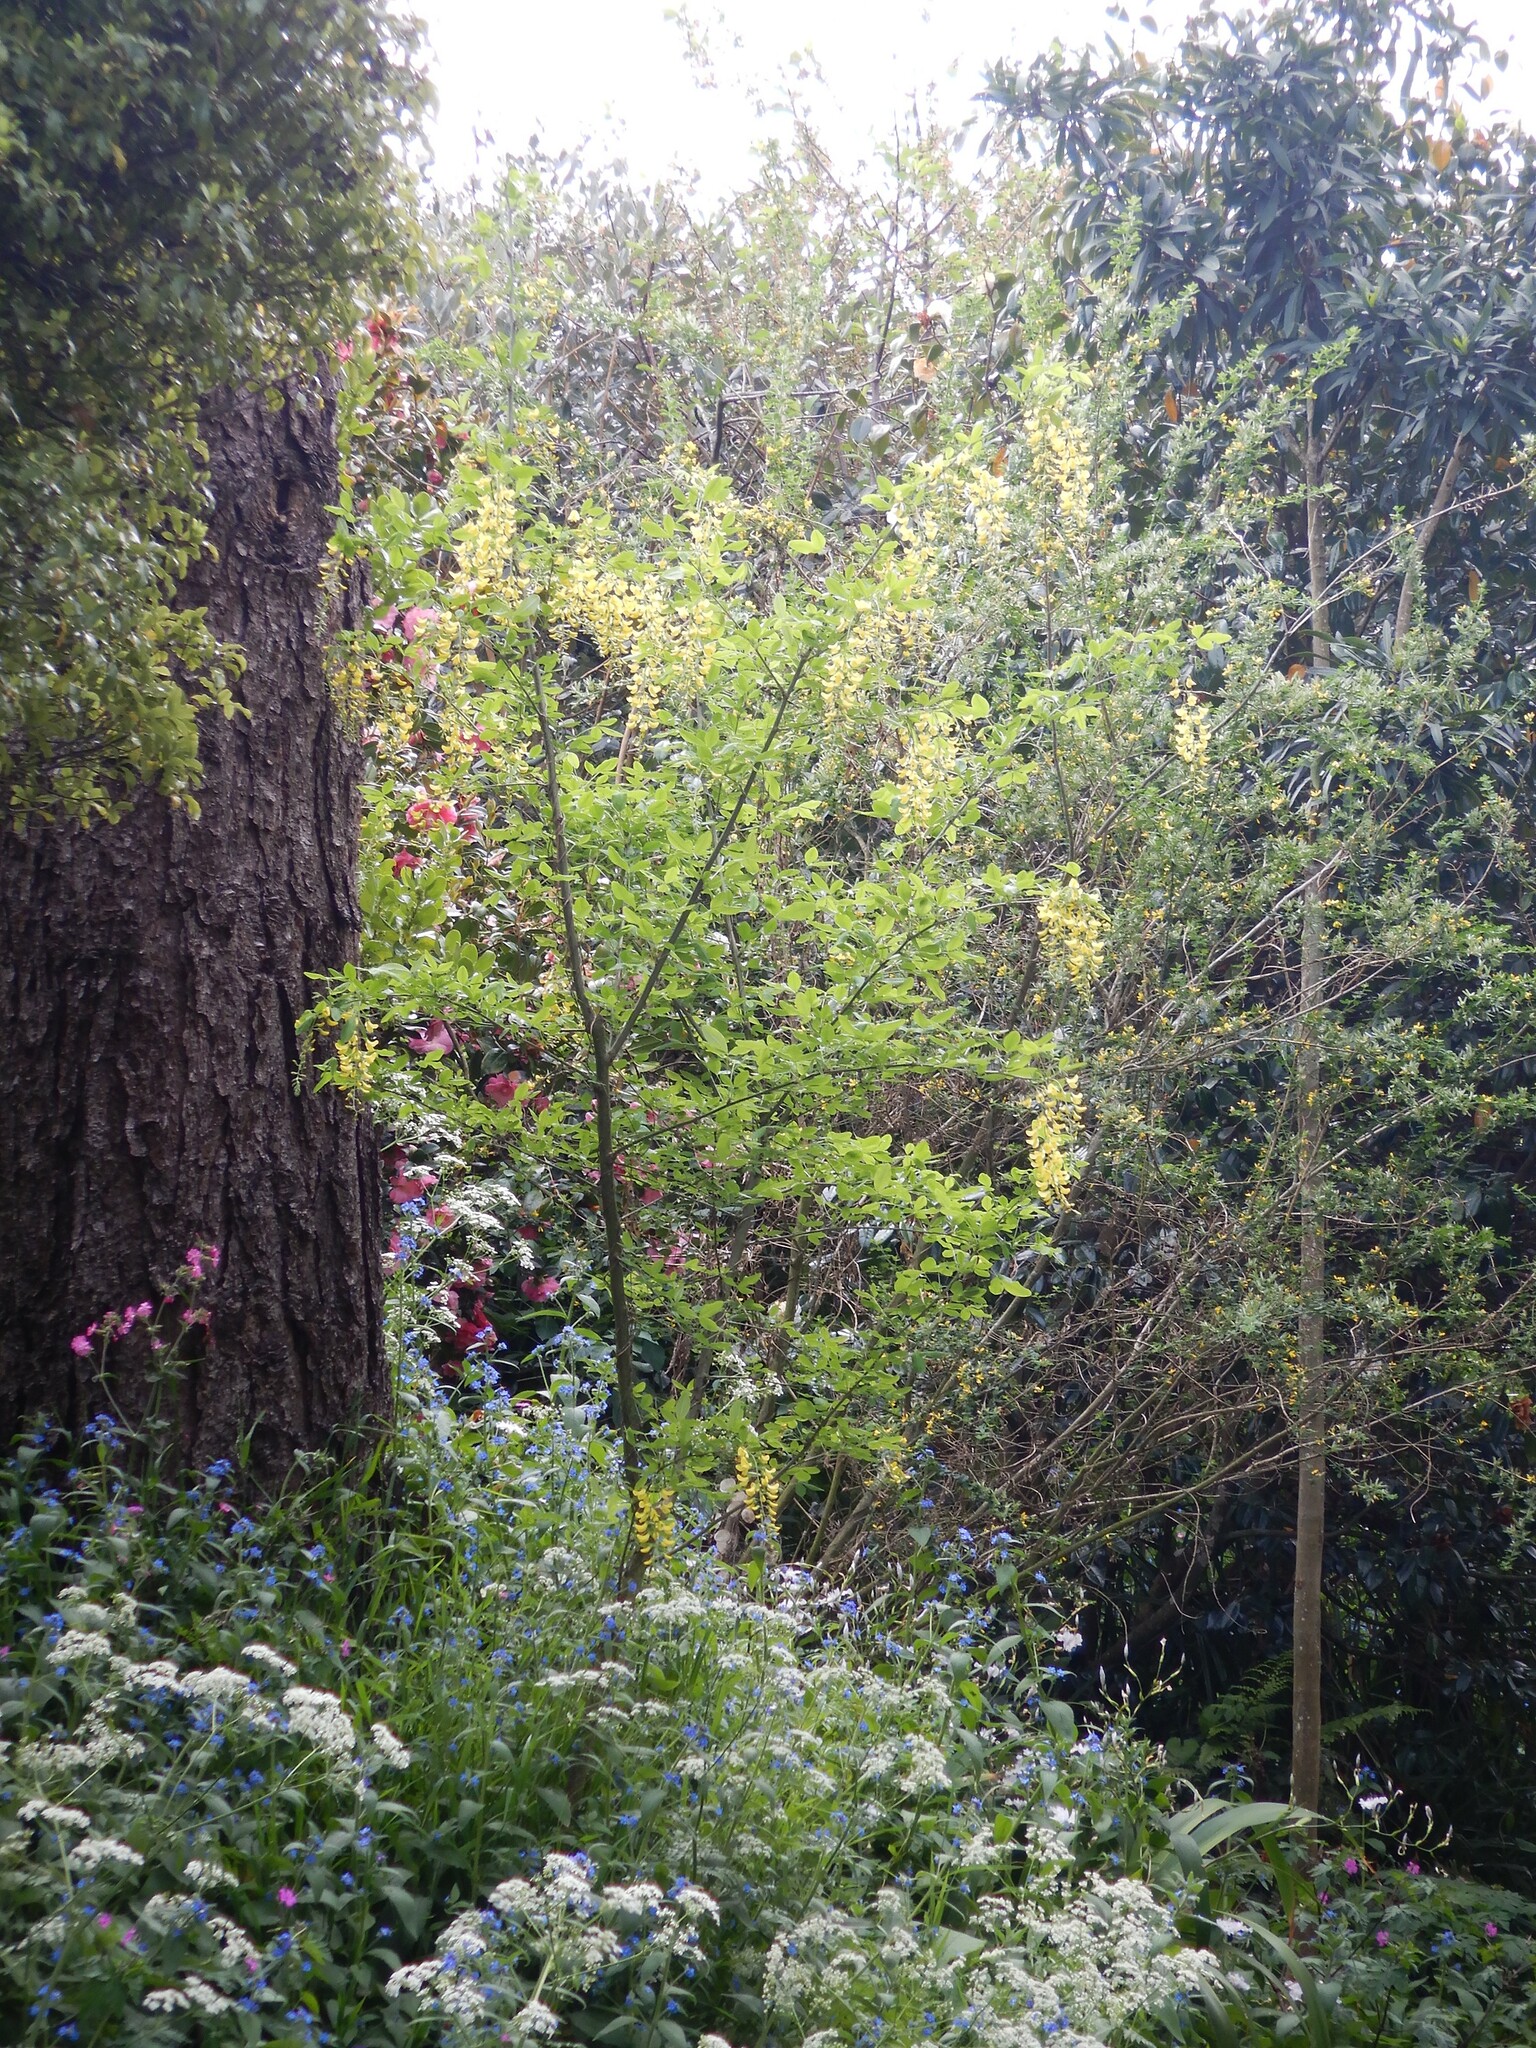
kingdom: Plantae
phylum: Tracheophyta
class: Magnoliopsida
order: Fabales
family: Fabaceae
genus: Laburnum
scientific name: Laburnum anagyroides
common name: Laburnum
